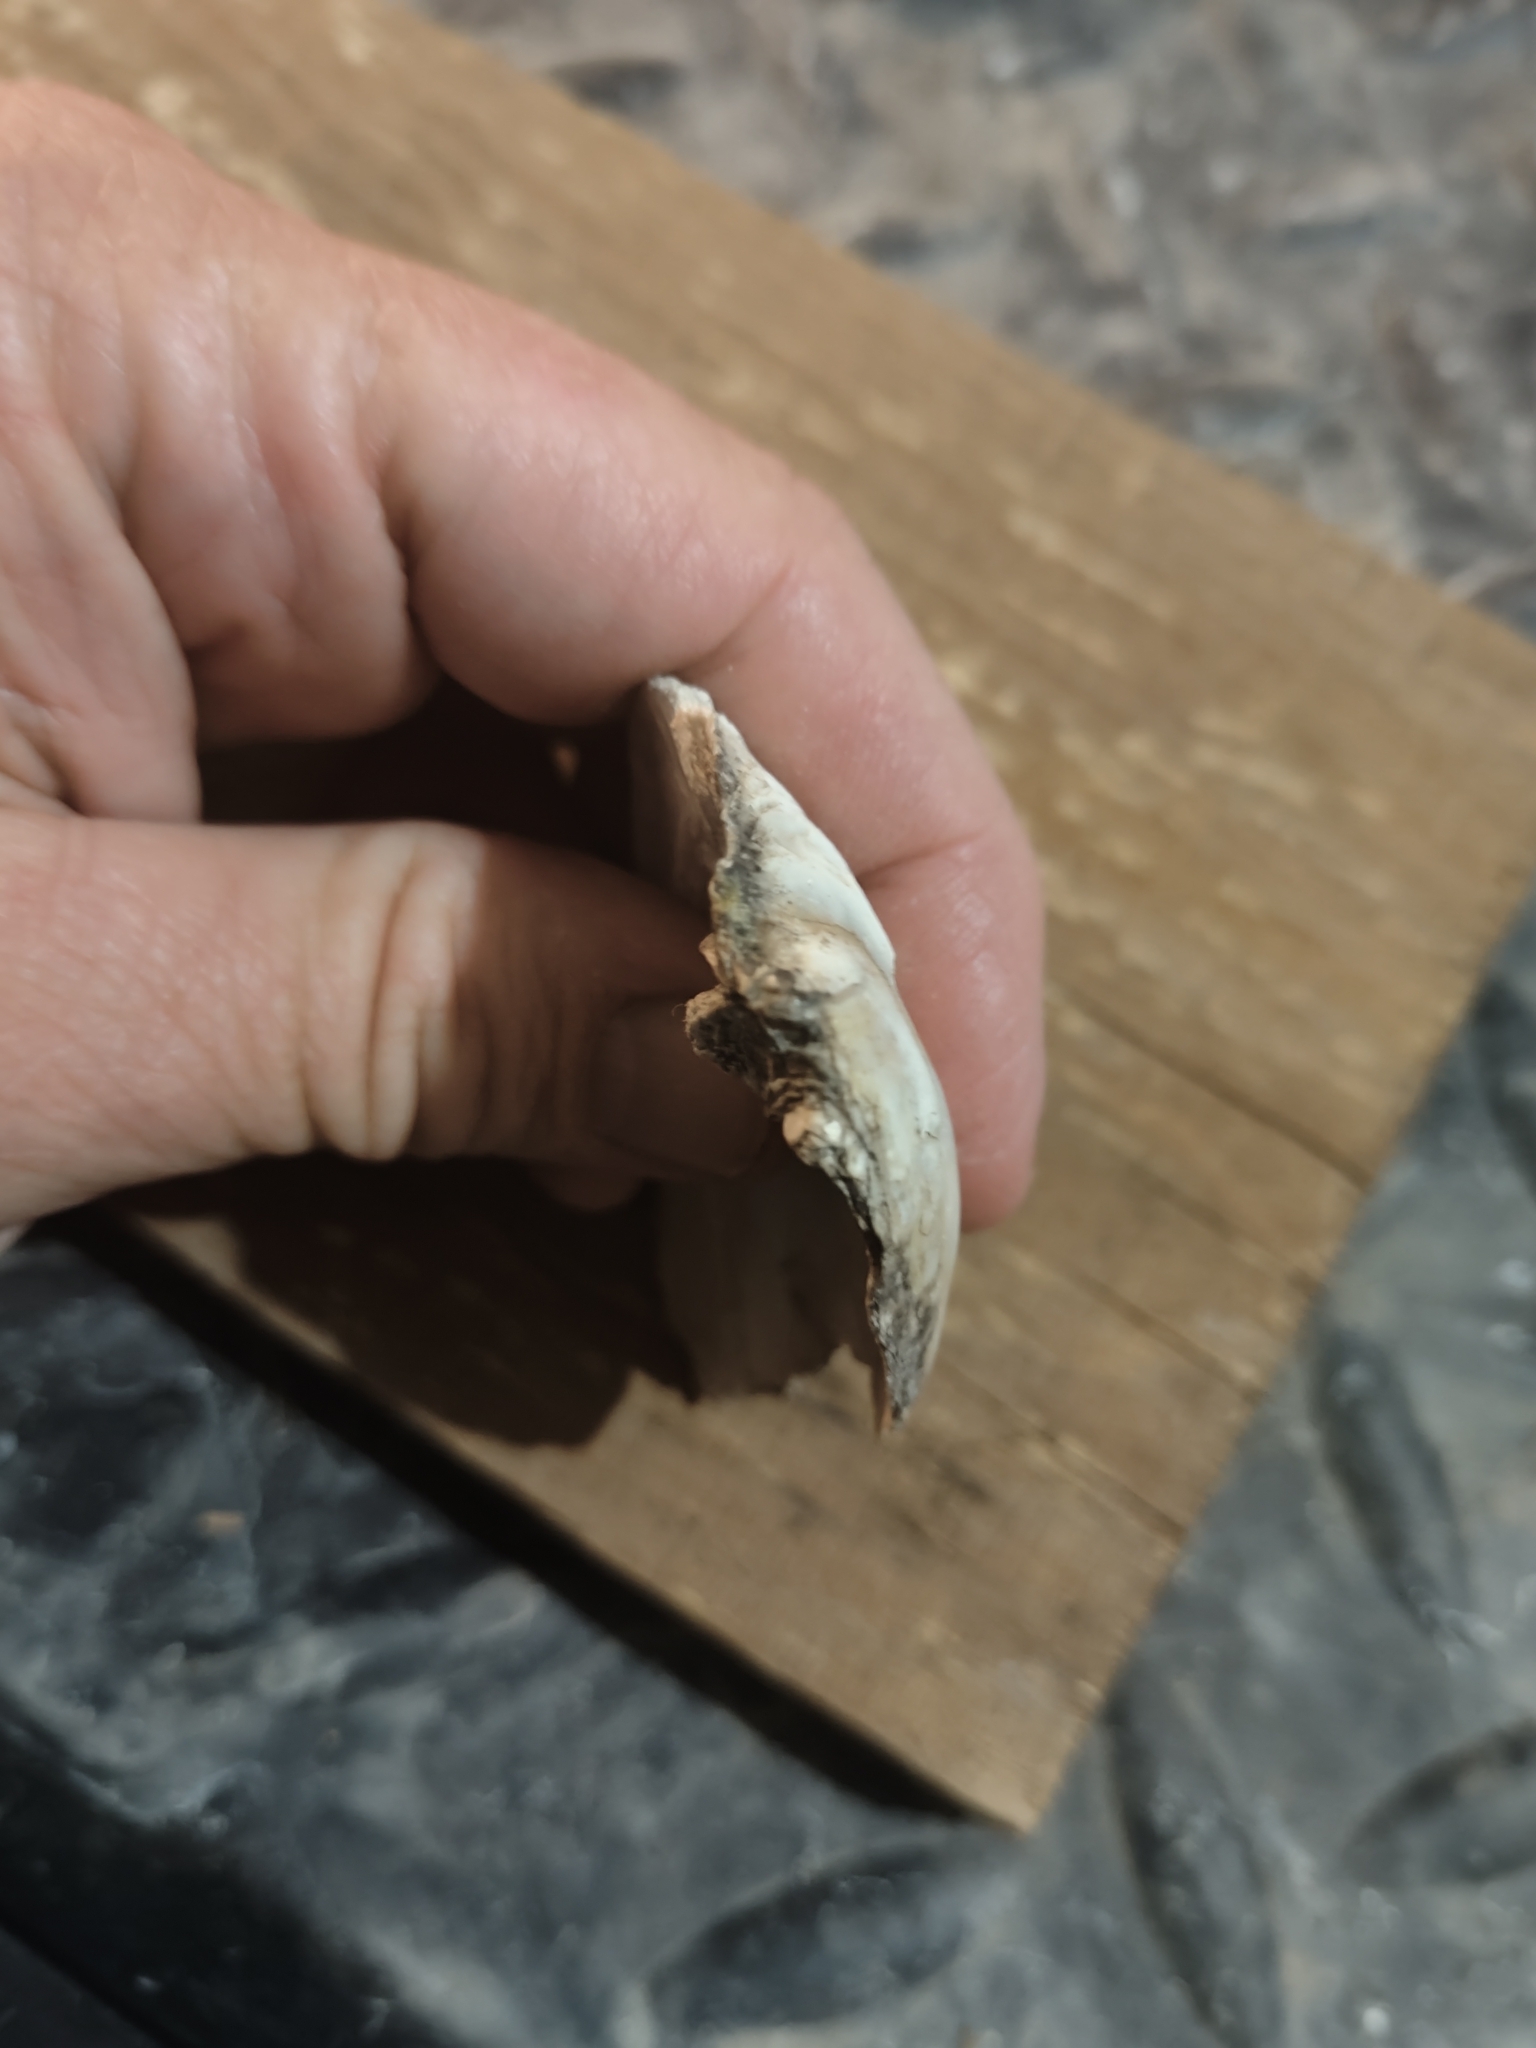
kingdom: Animalia
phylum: Mollusca
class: Bivalvia
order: Unionida
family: Unionidae
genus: Amblema
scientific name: Amblema plicata
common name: Threeridge
